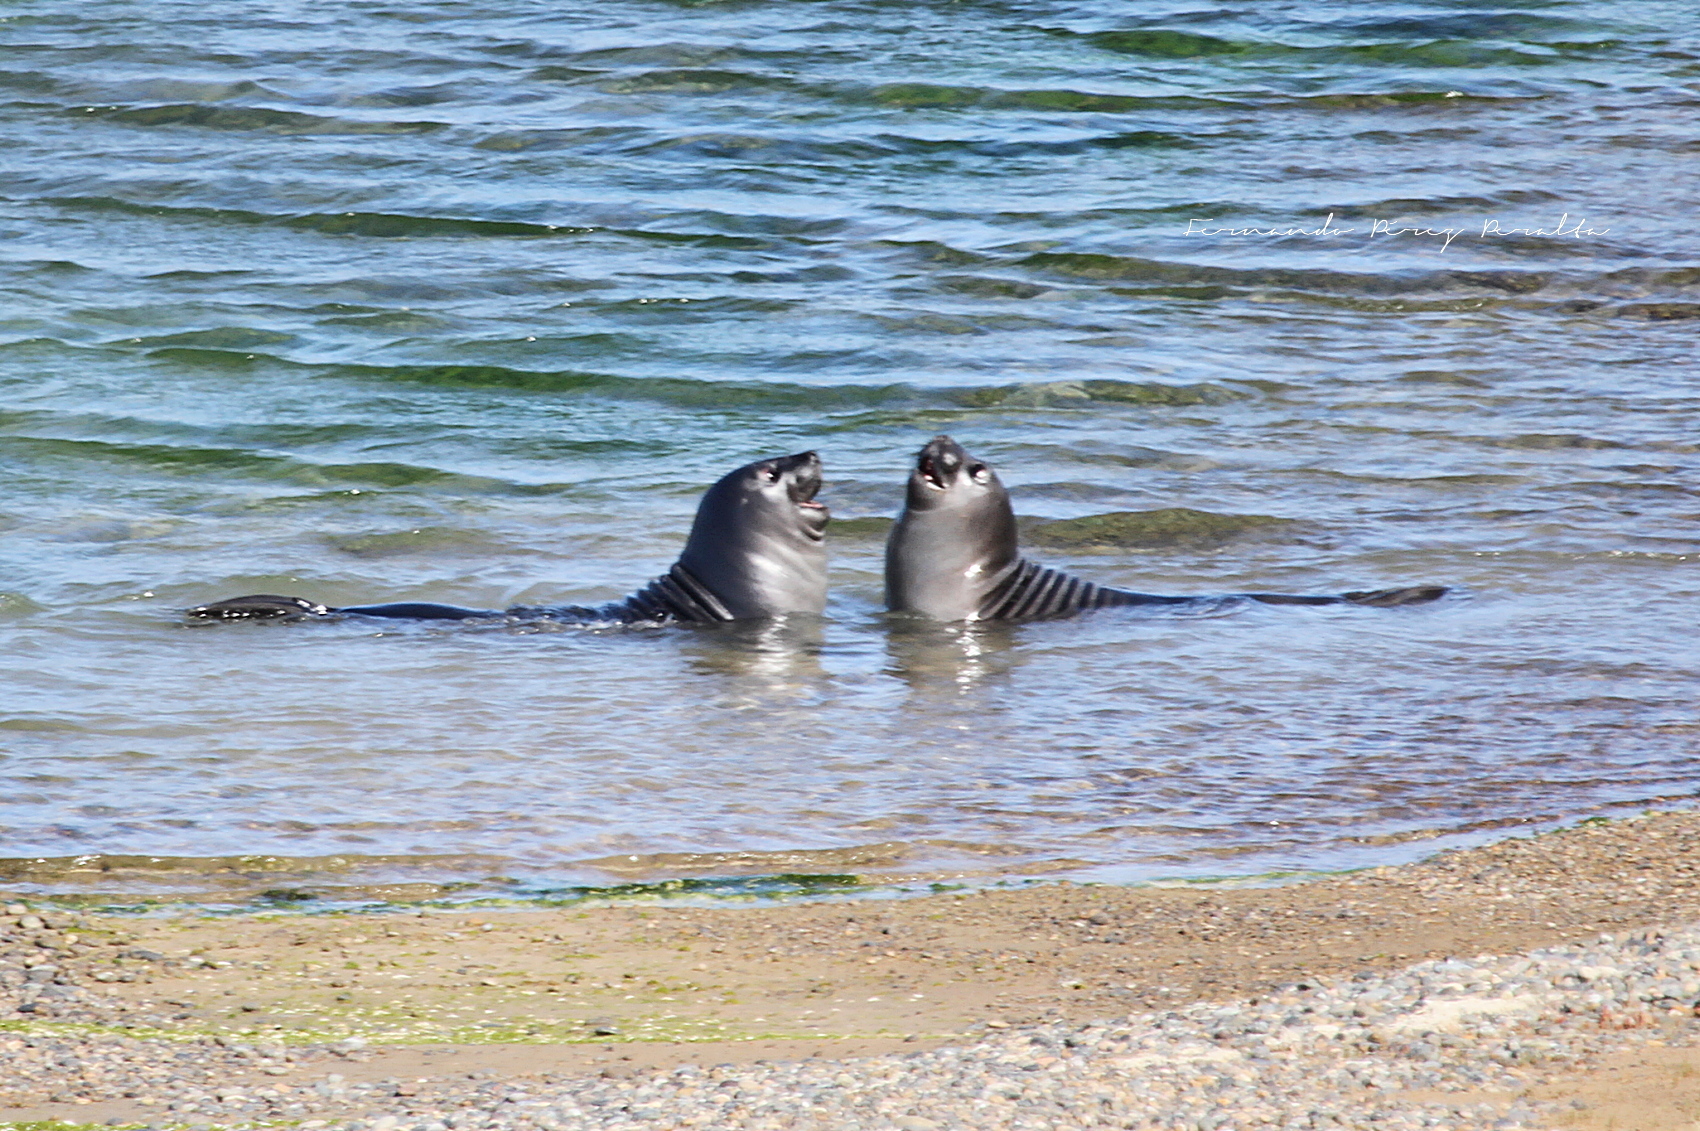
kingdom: Animalia
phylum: Chordata
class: Mammalia
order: Carnivora
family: Phocidae
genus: Mirounga
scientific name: Mirounga leonina
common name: Southern elephant seal
